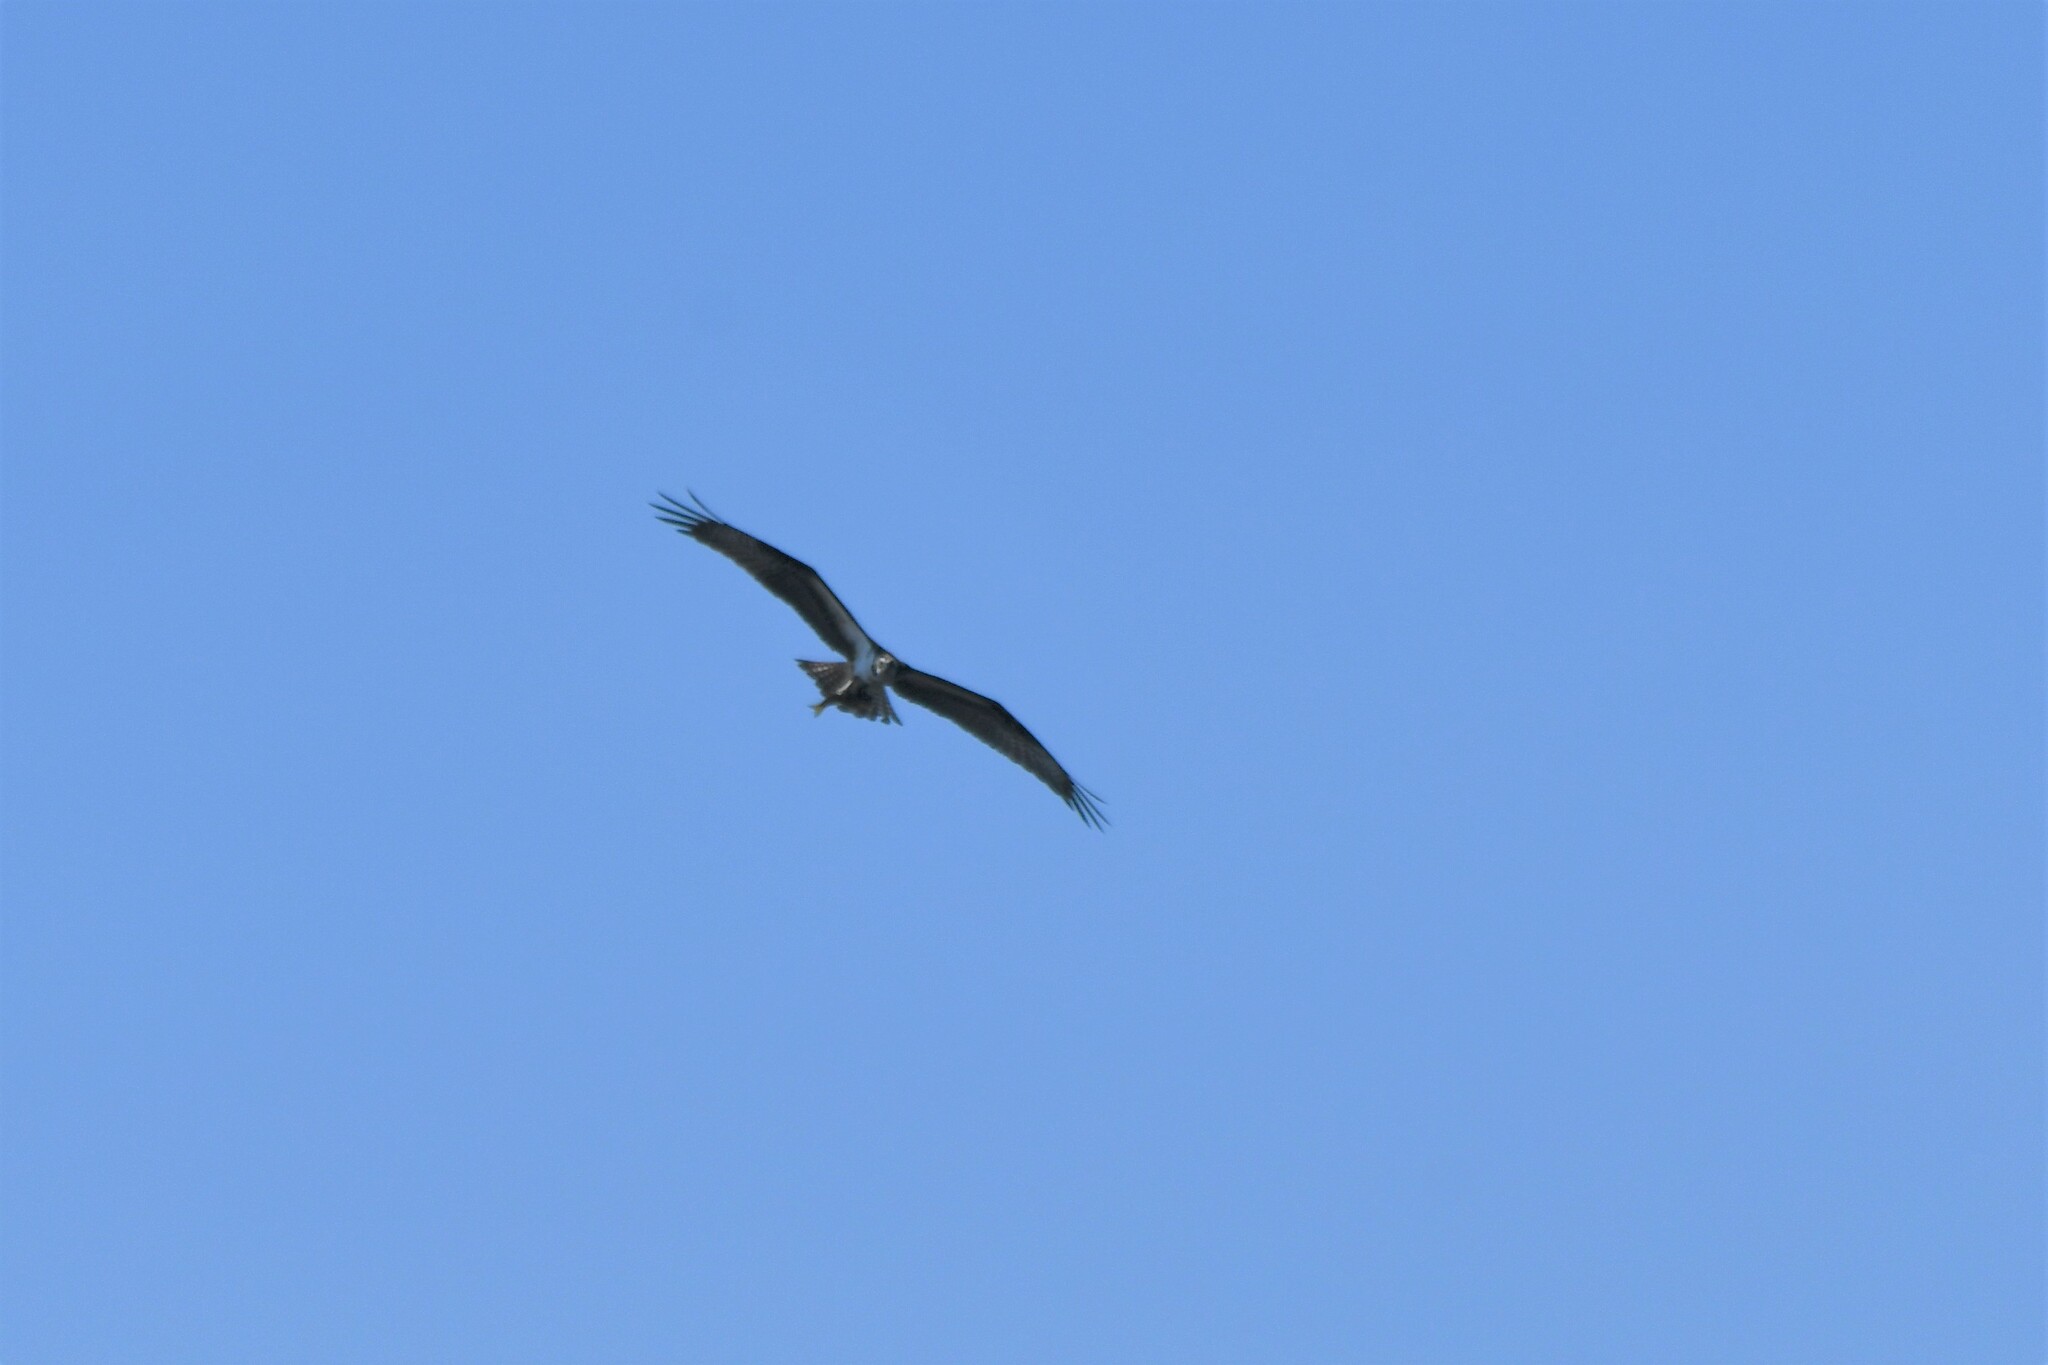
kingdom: Animalia
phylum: Chordata
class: Aves
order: Accipitriformes
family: Pandionidae
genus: Pandion
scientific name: Pandion haliaetus
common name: Osprey
